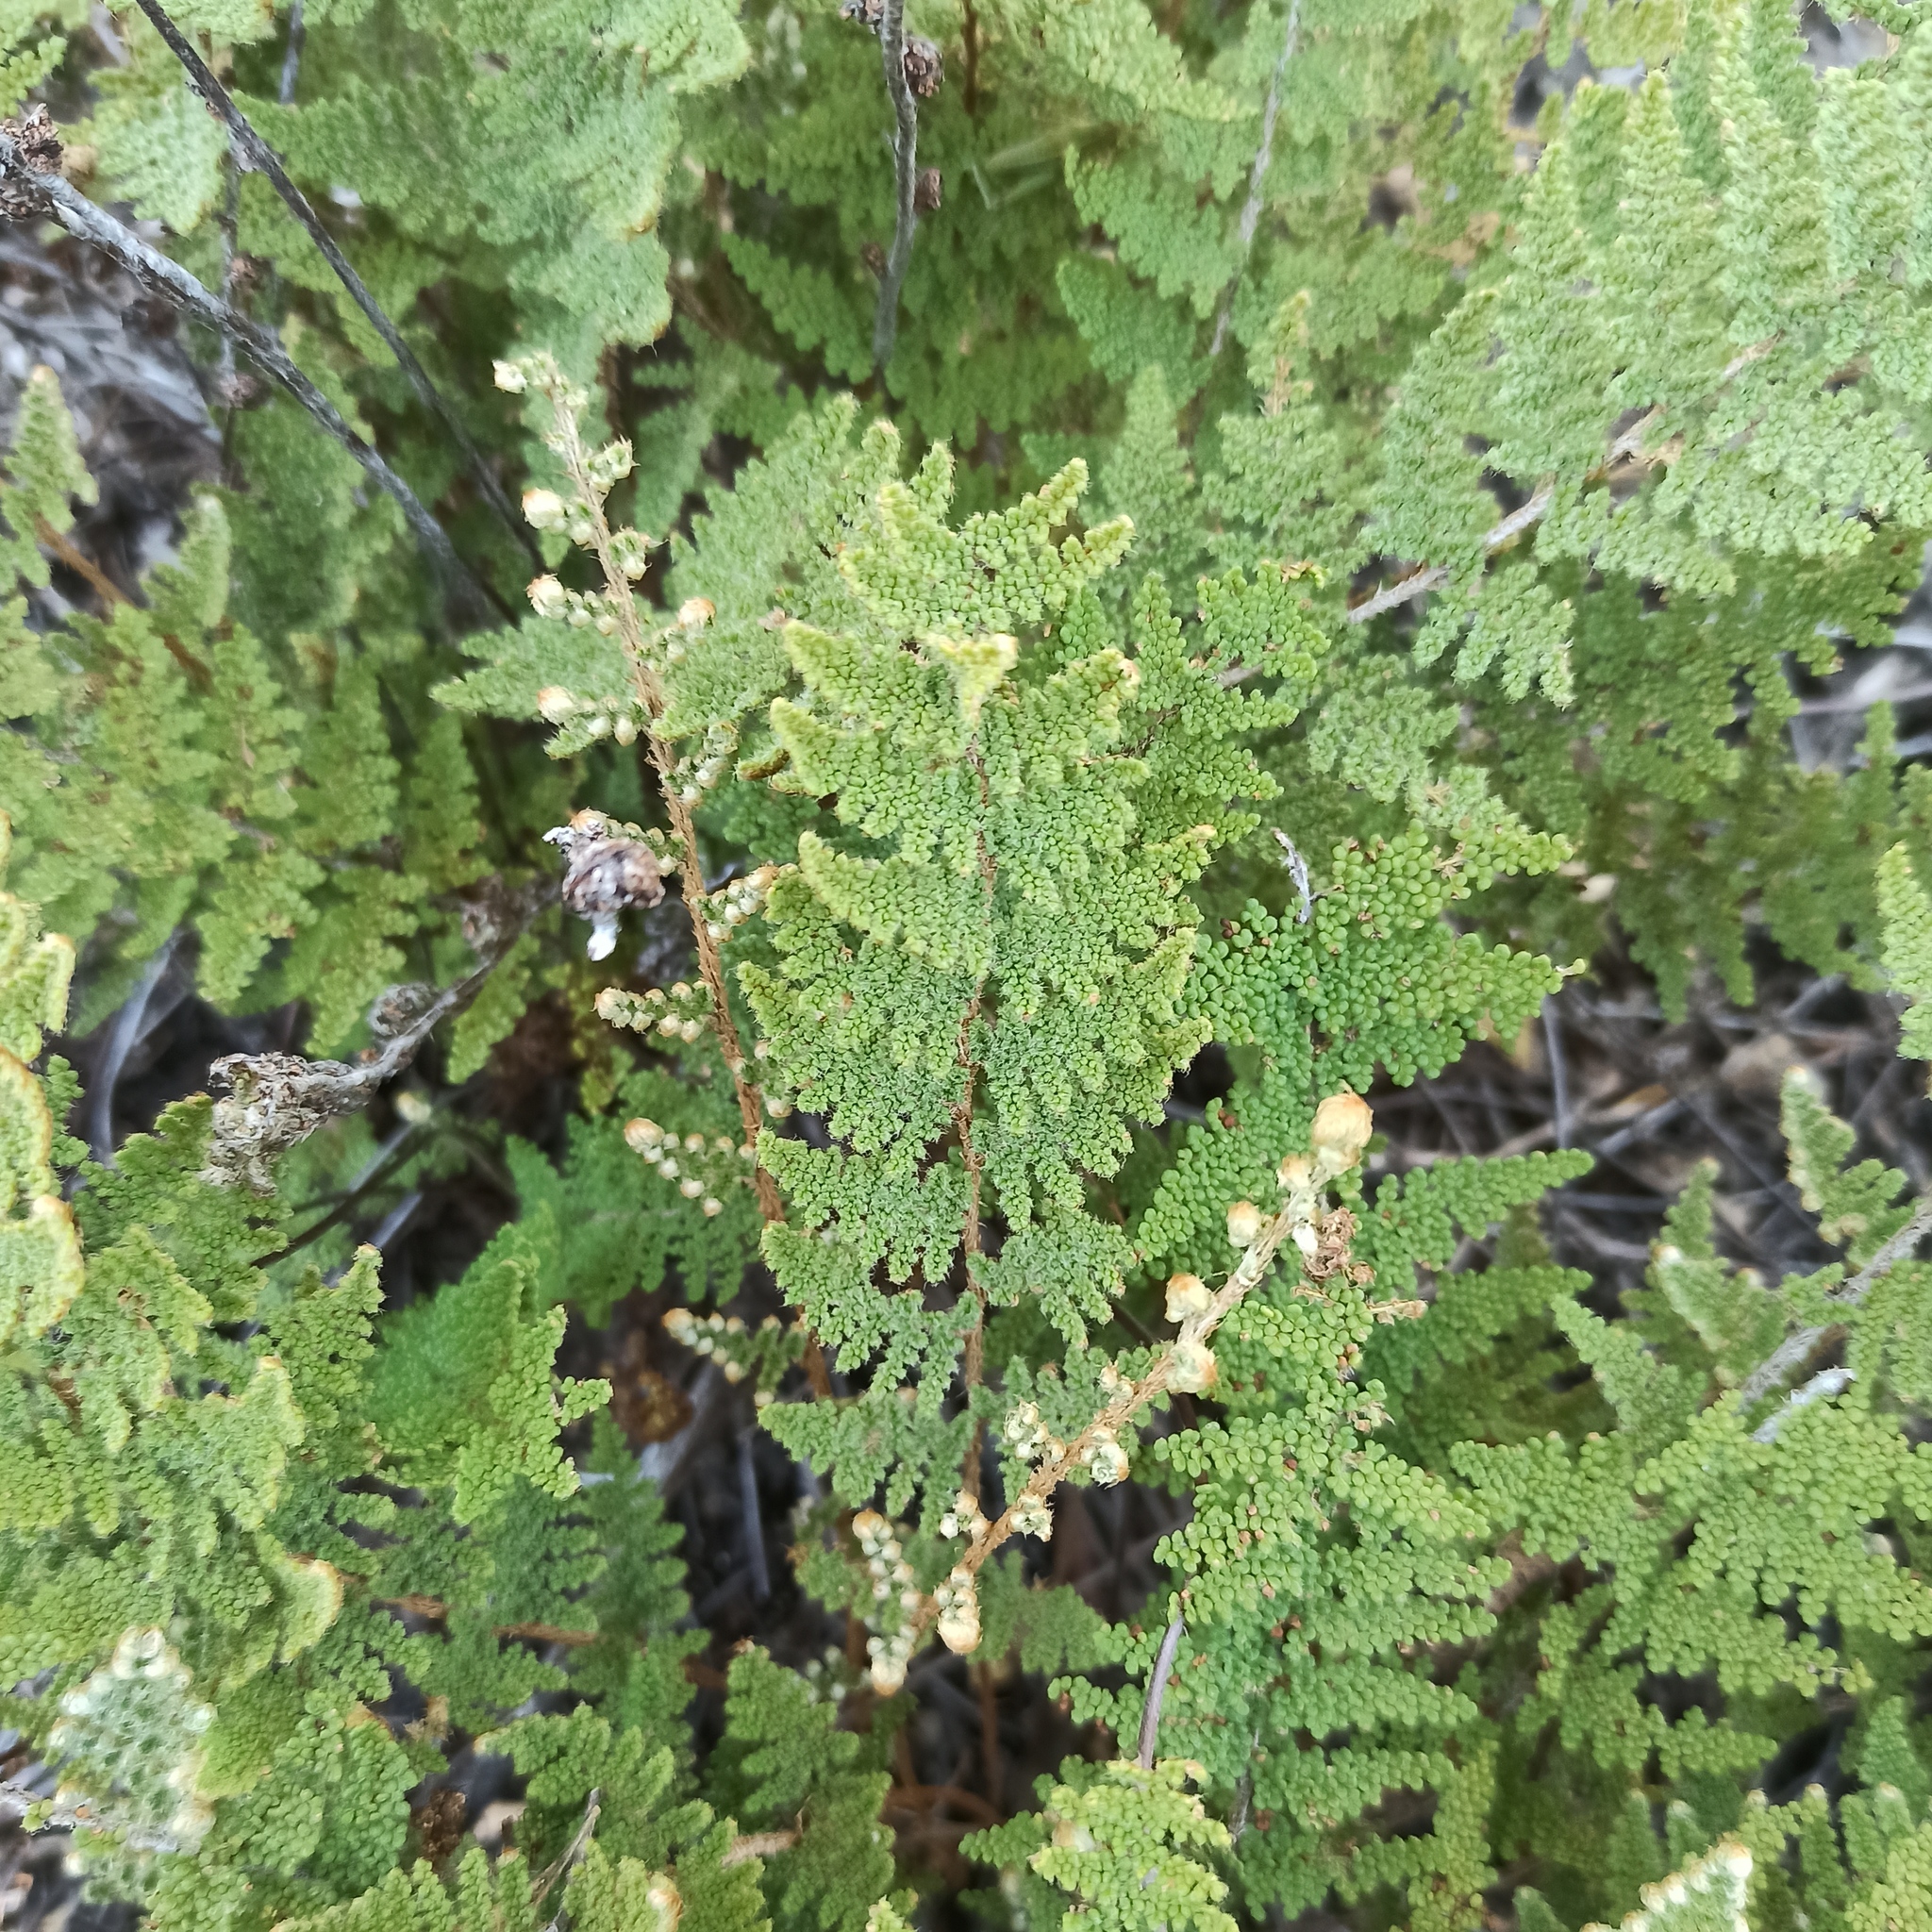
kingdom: Plantae
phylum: Tracheophyta
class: Polypodiopsida
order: Polypodiales
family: Pteridaceae
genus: Myriopteris
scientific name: Myriopteris myriophylla
